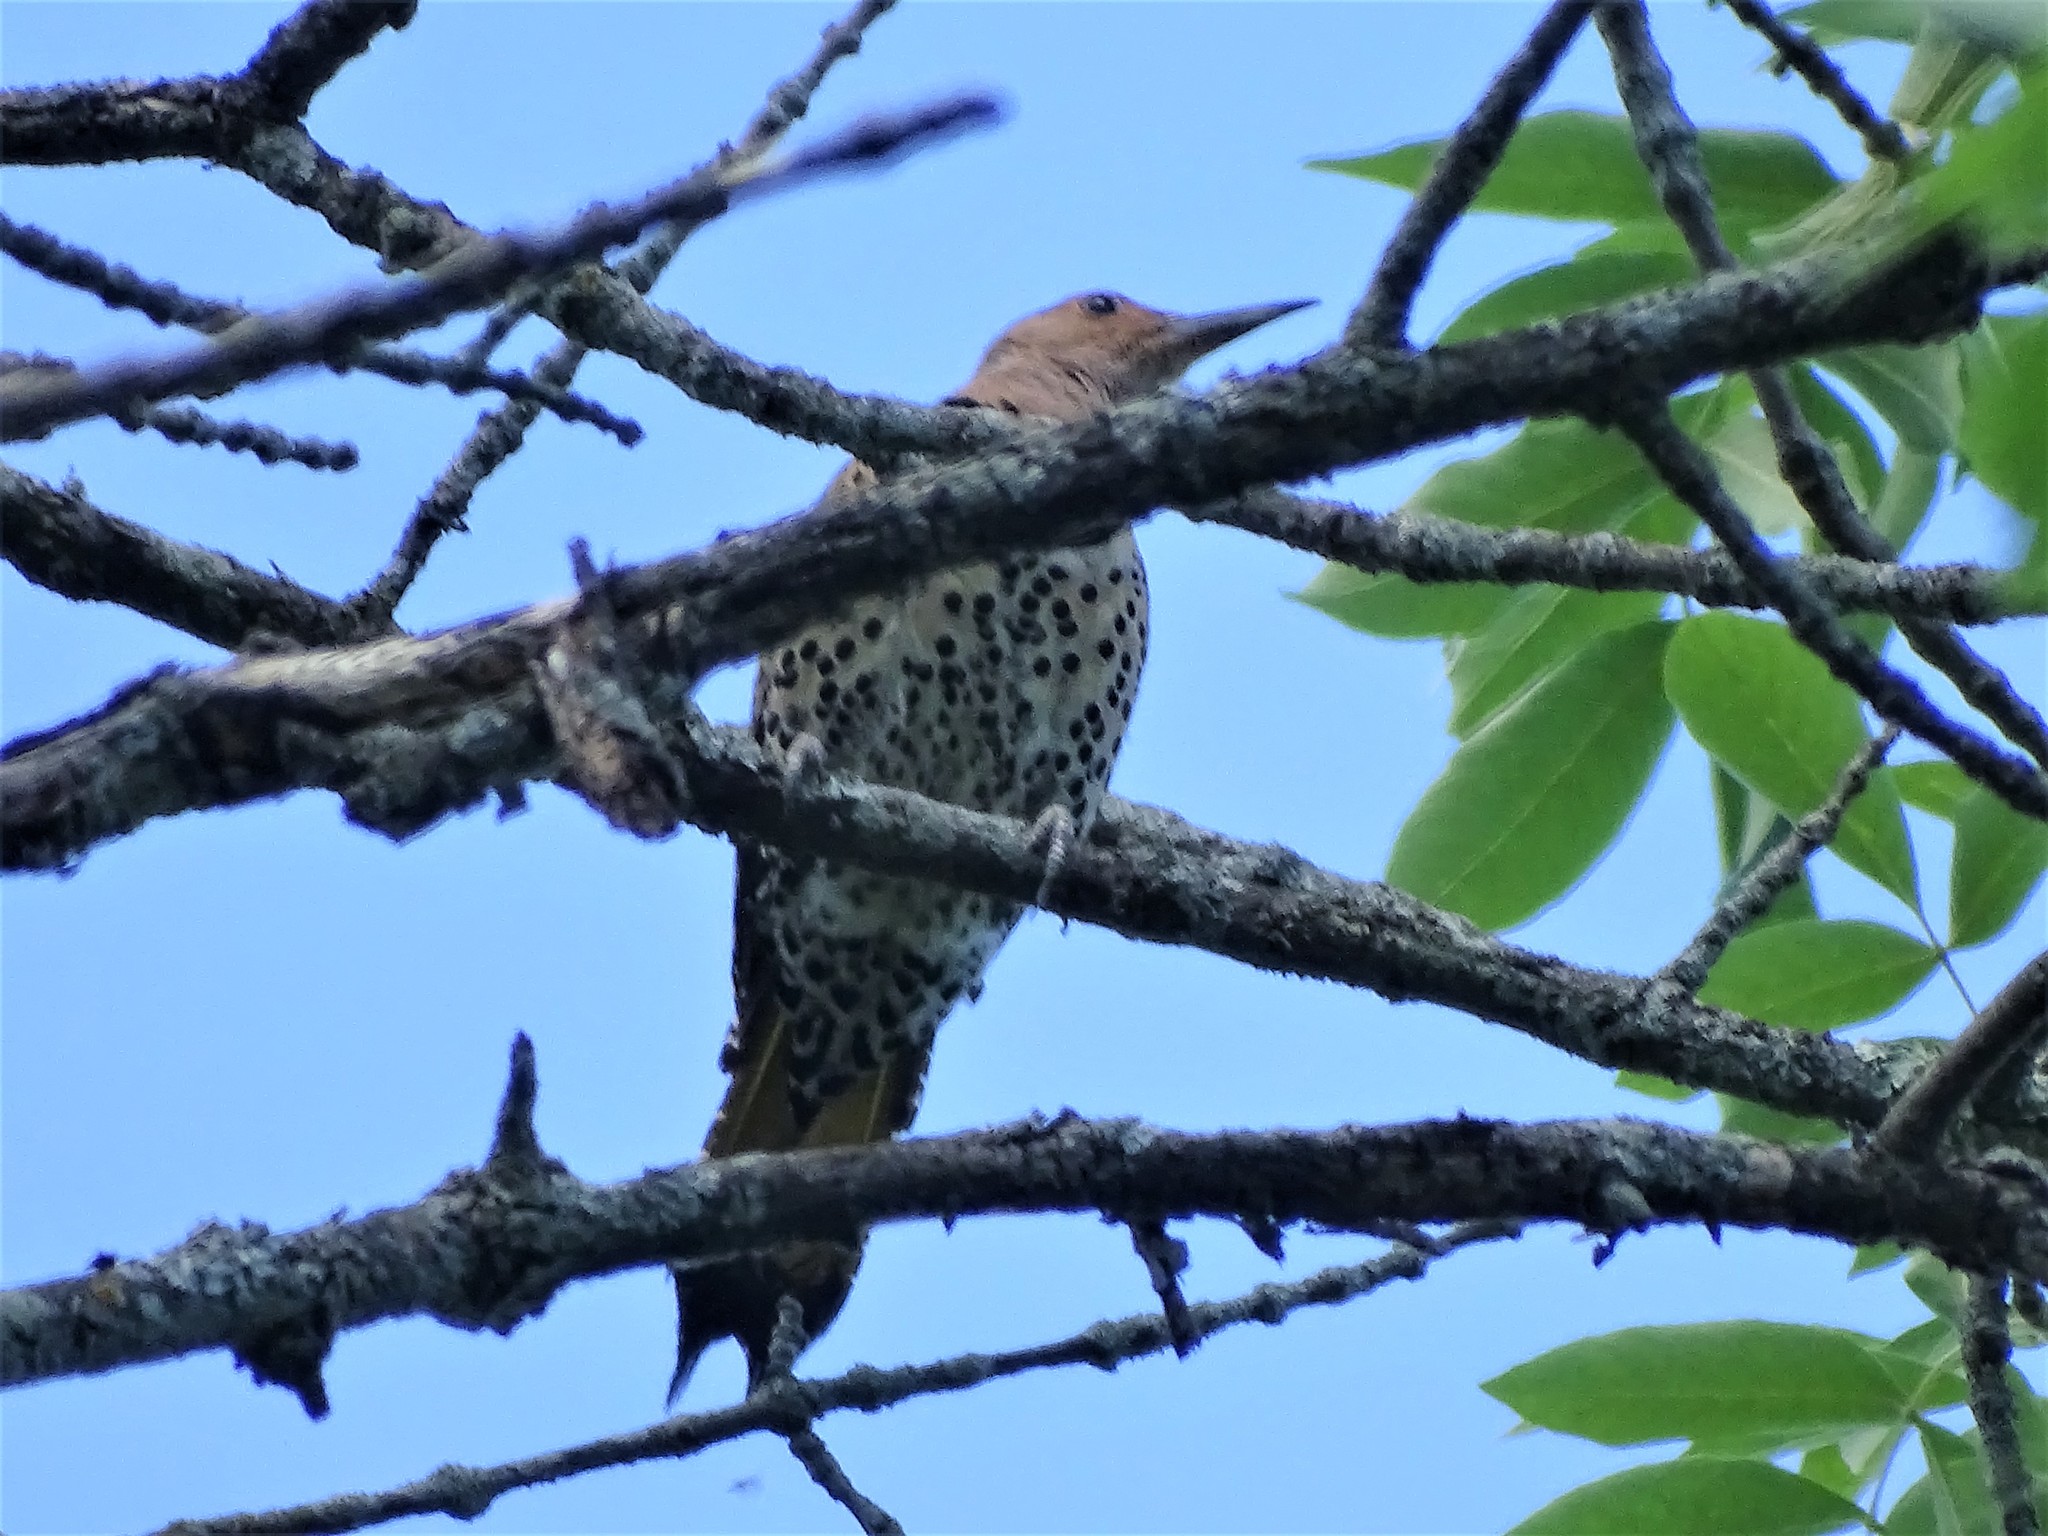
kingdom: Animalia
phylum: Chordata
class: Aves
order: Piciformes
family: Picidae
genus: Colaptes
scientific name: Colaptes auratus
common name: Northern flicker
